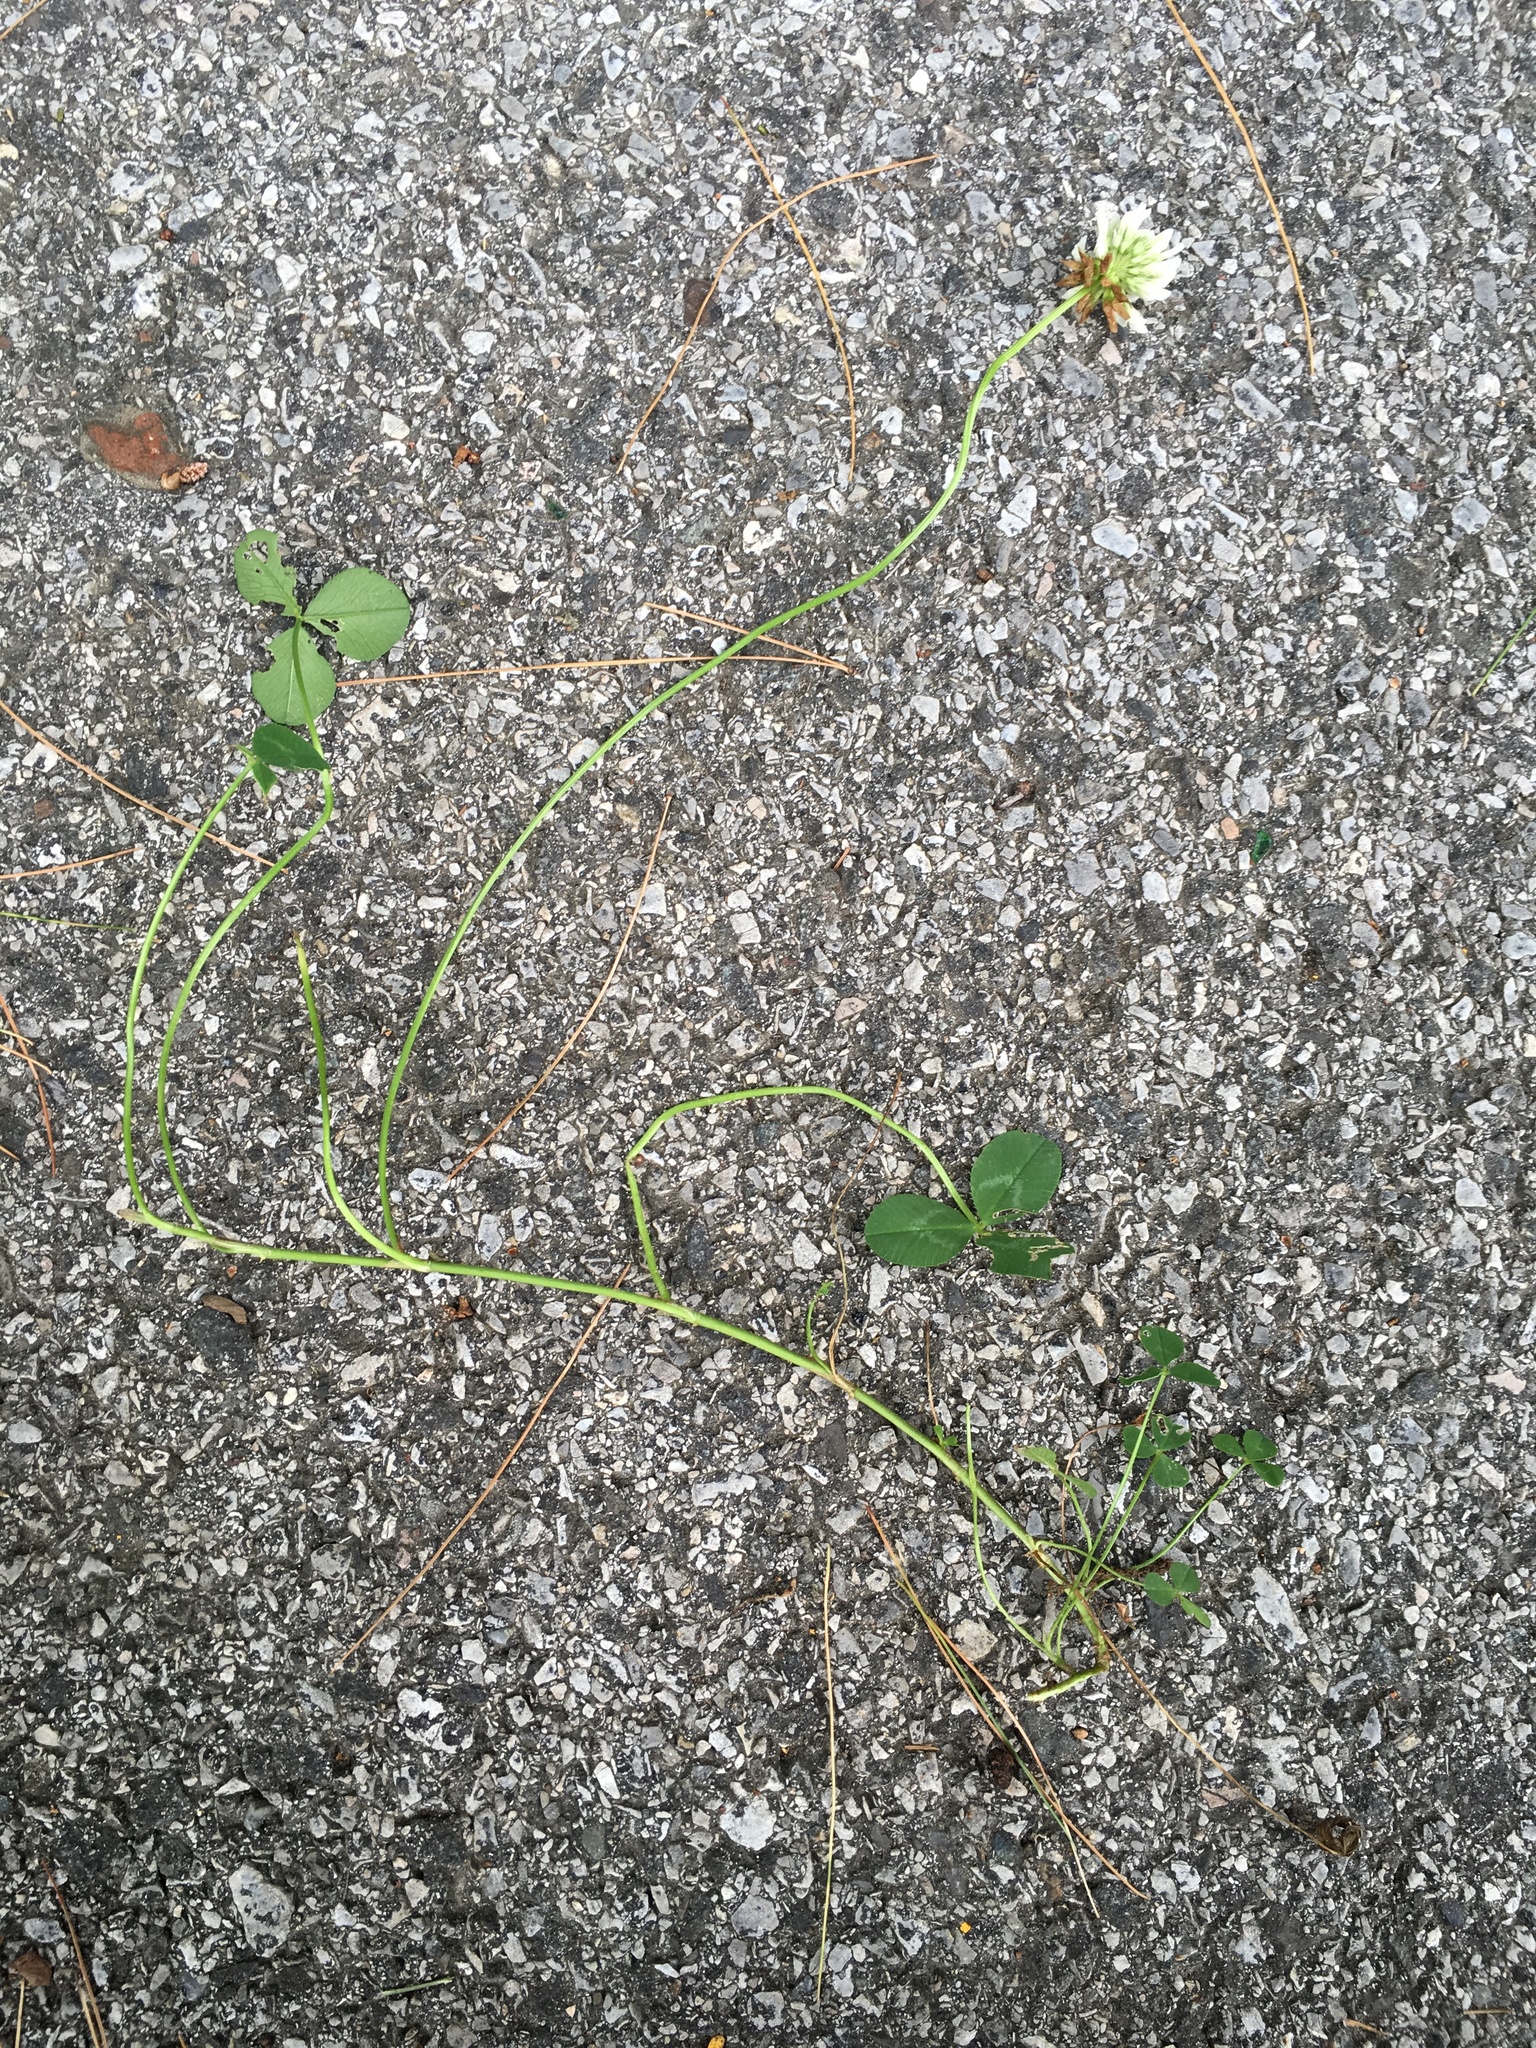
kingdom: Plantae
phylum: Tracheophyta
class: Magnoliopsida
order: Fabales
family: Fabaceae
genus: Trifolium
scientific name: Trifolium repens
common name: White clover
